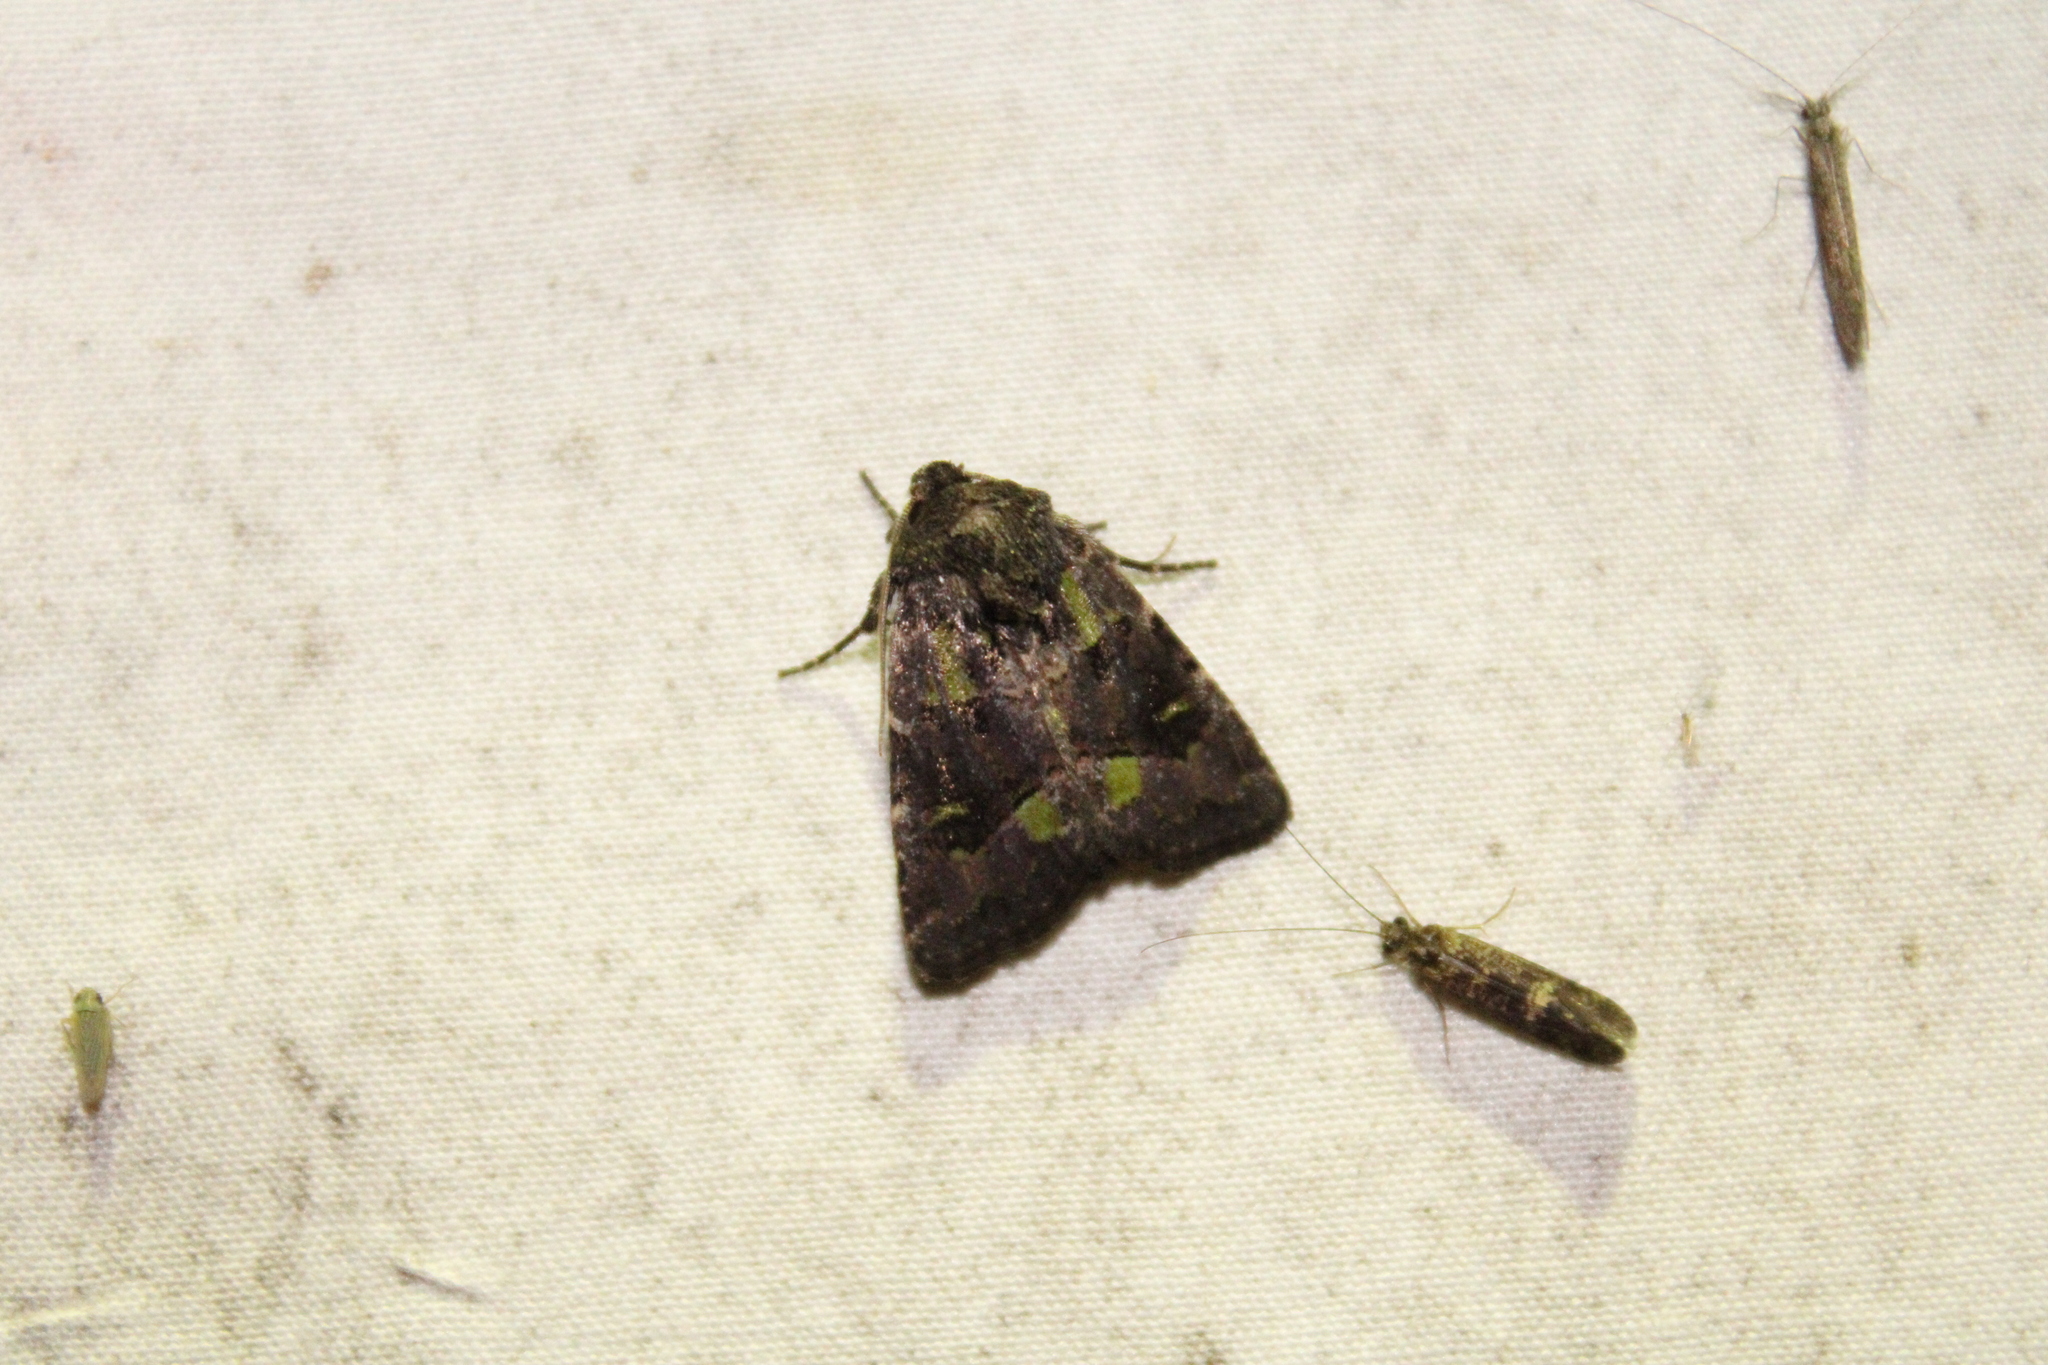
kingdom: Animalia
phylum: Arthropoda
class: Insecta
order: Lepidoptera
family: Noctuidae
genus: Lacinipolia
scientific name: Lacinipolia renigera
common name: Kidney-spotted minor
